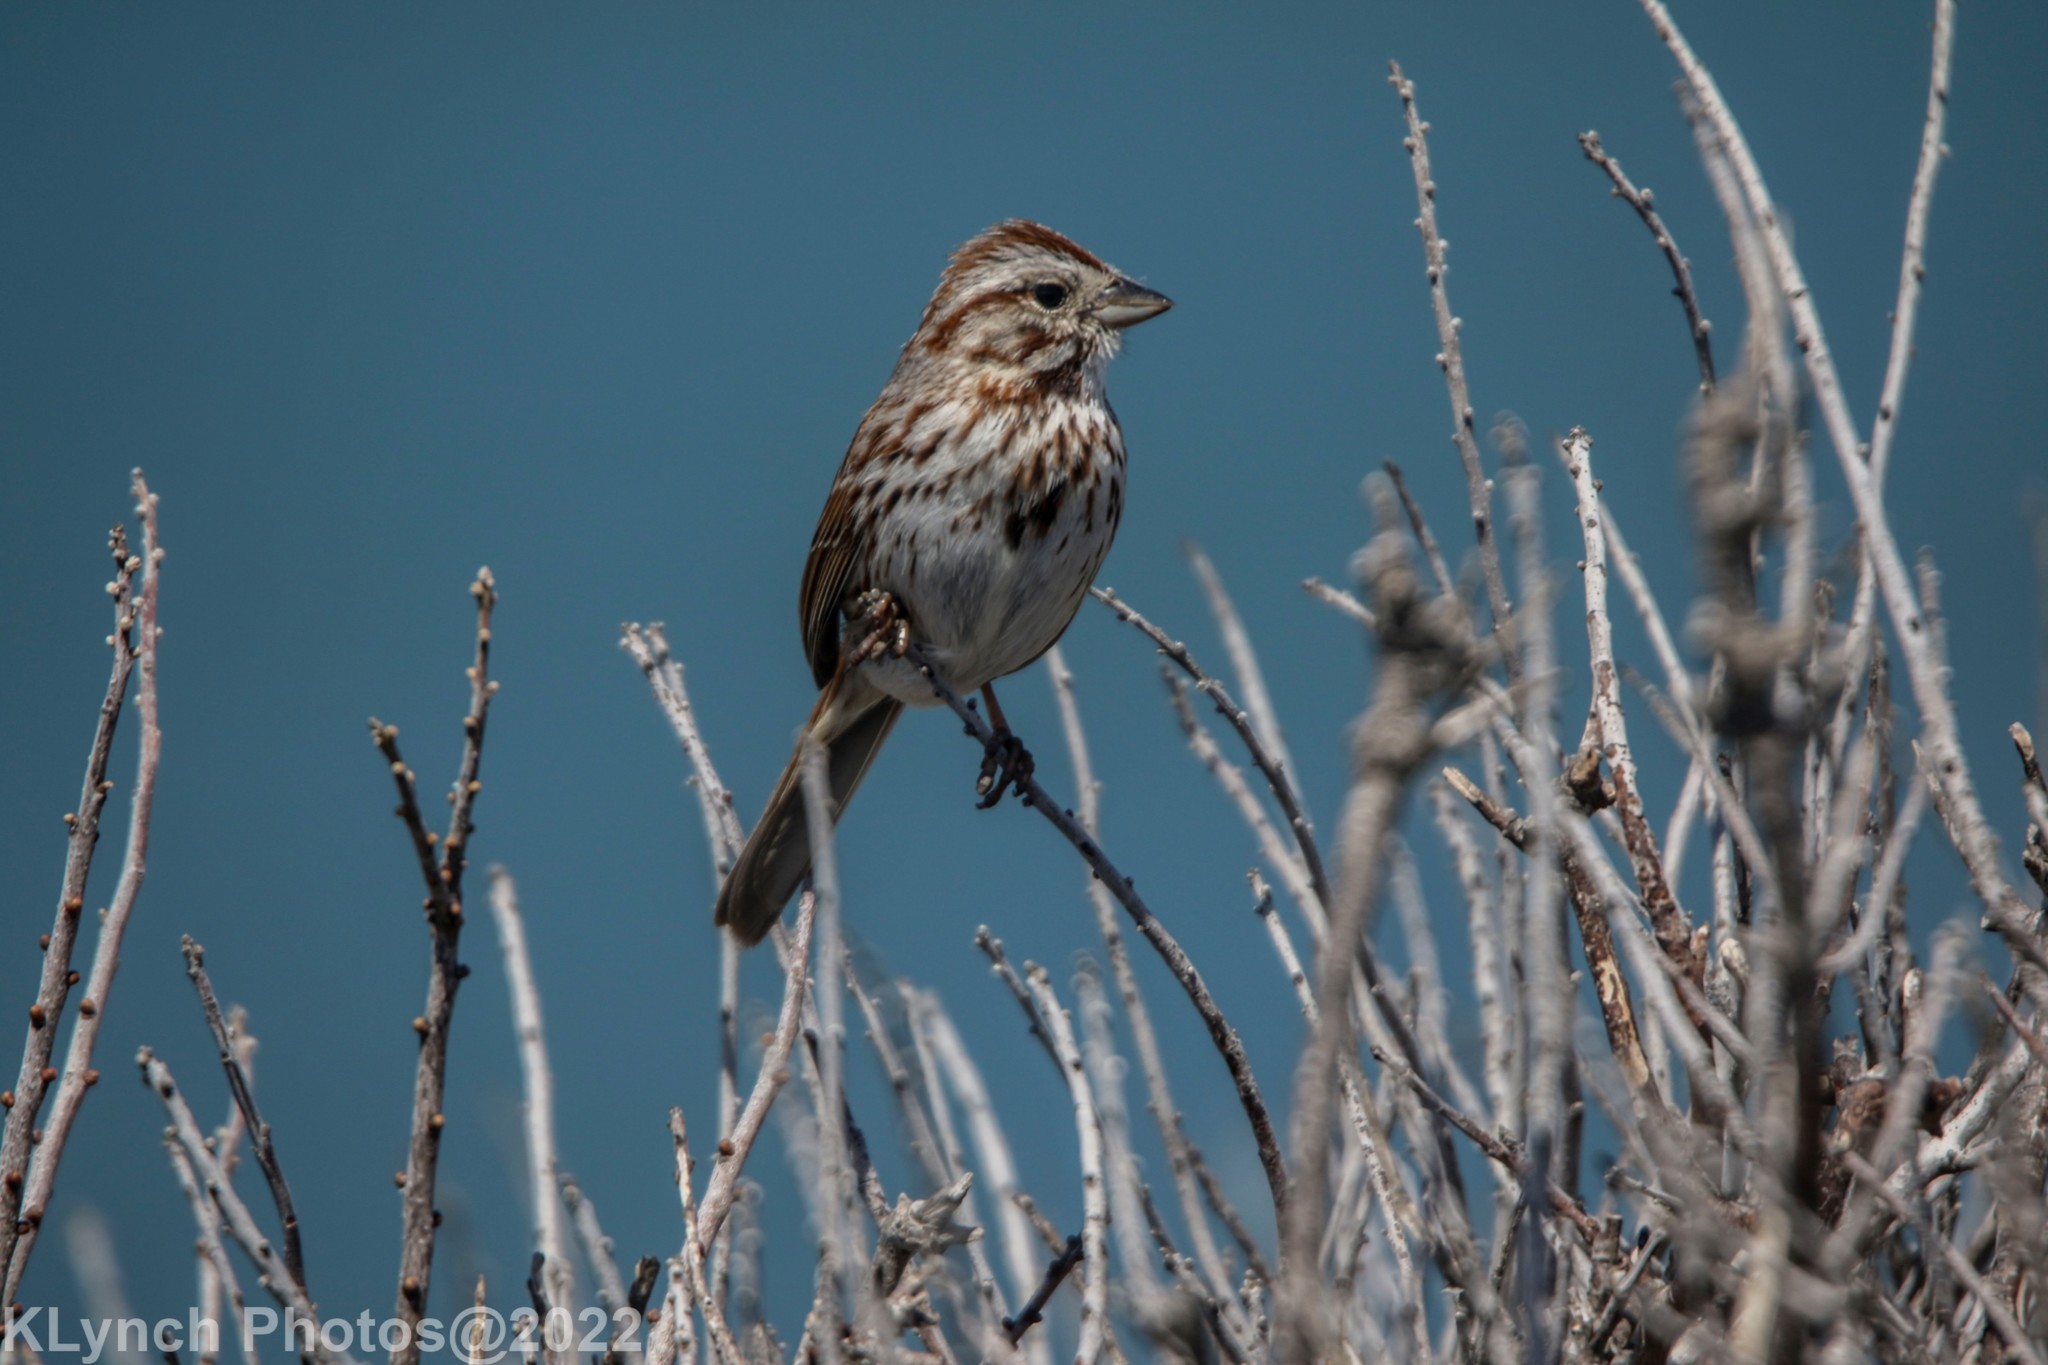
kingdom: Animalia
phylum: Chordata
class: Aves
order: Passeriformes
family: Passerellidae
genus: Melospiza
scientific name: Melospiza melodia
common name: Song sparrow
